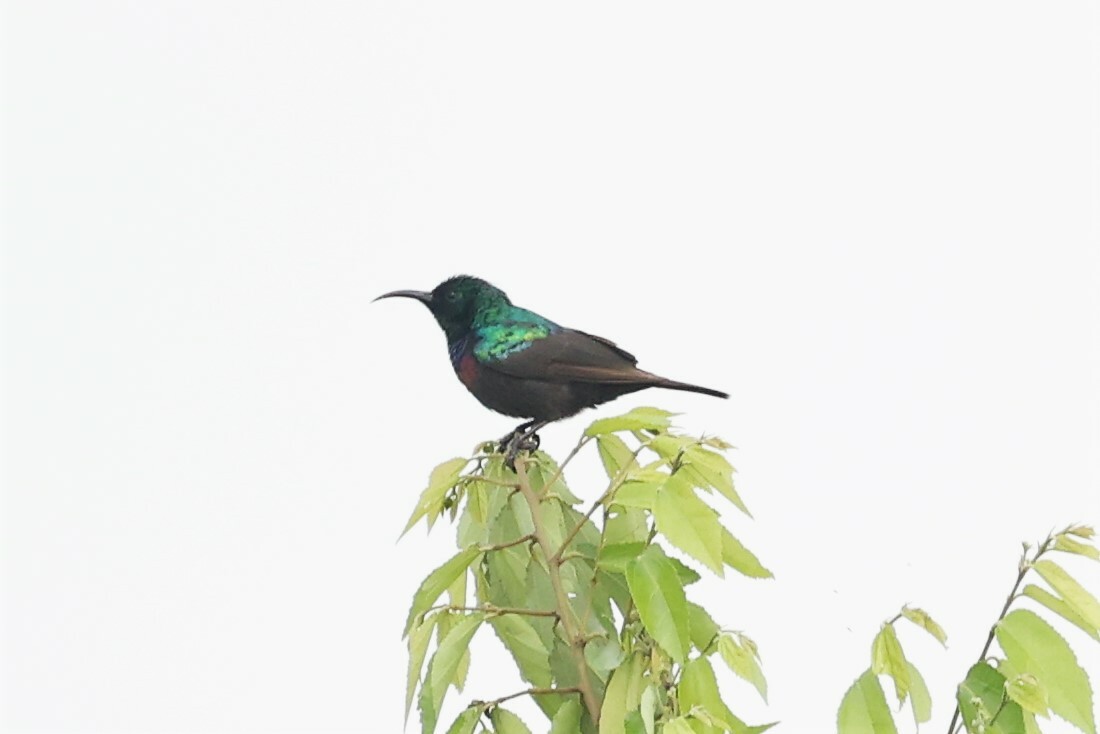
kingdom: Animalia
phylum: Chordata
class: Aves
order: Passeriformes
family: Nectariniidae
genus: Cinnyris
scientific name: Cinnyris mariquensis
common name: Marico sunbird
